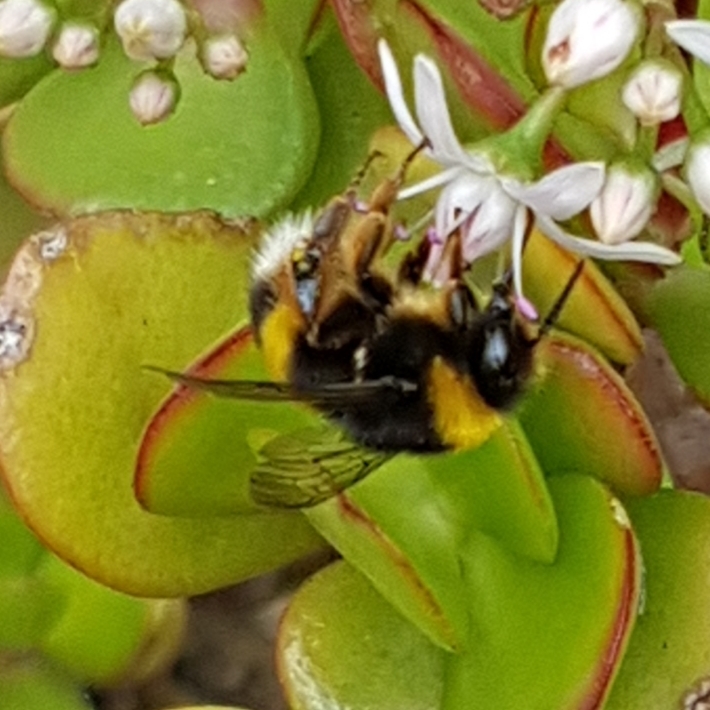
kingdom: Animalia
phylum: Arthropoda
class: Insecta
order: Hymenoptera
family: Apidae
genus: Bombus
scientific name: Bombus terrestris
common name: Buff-tailed bumblebee
